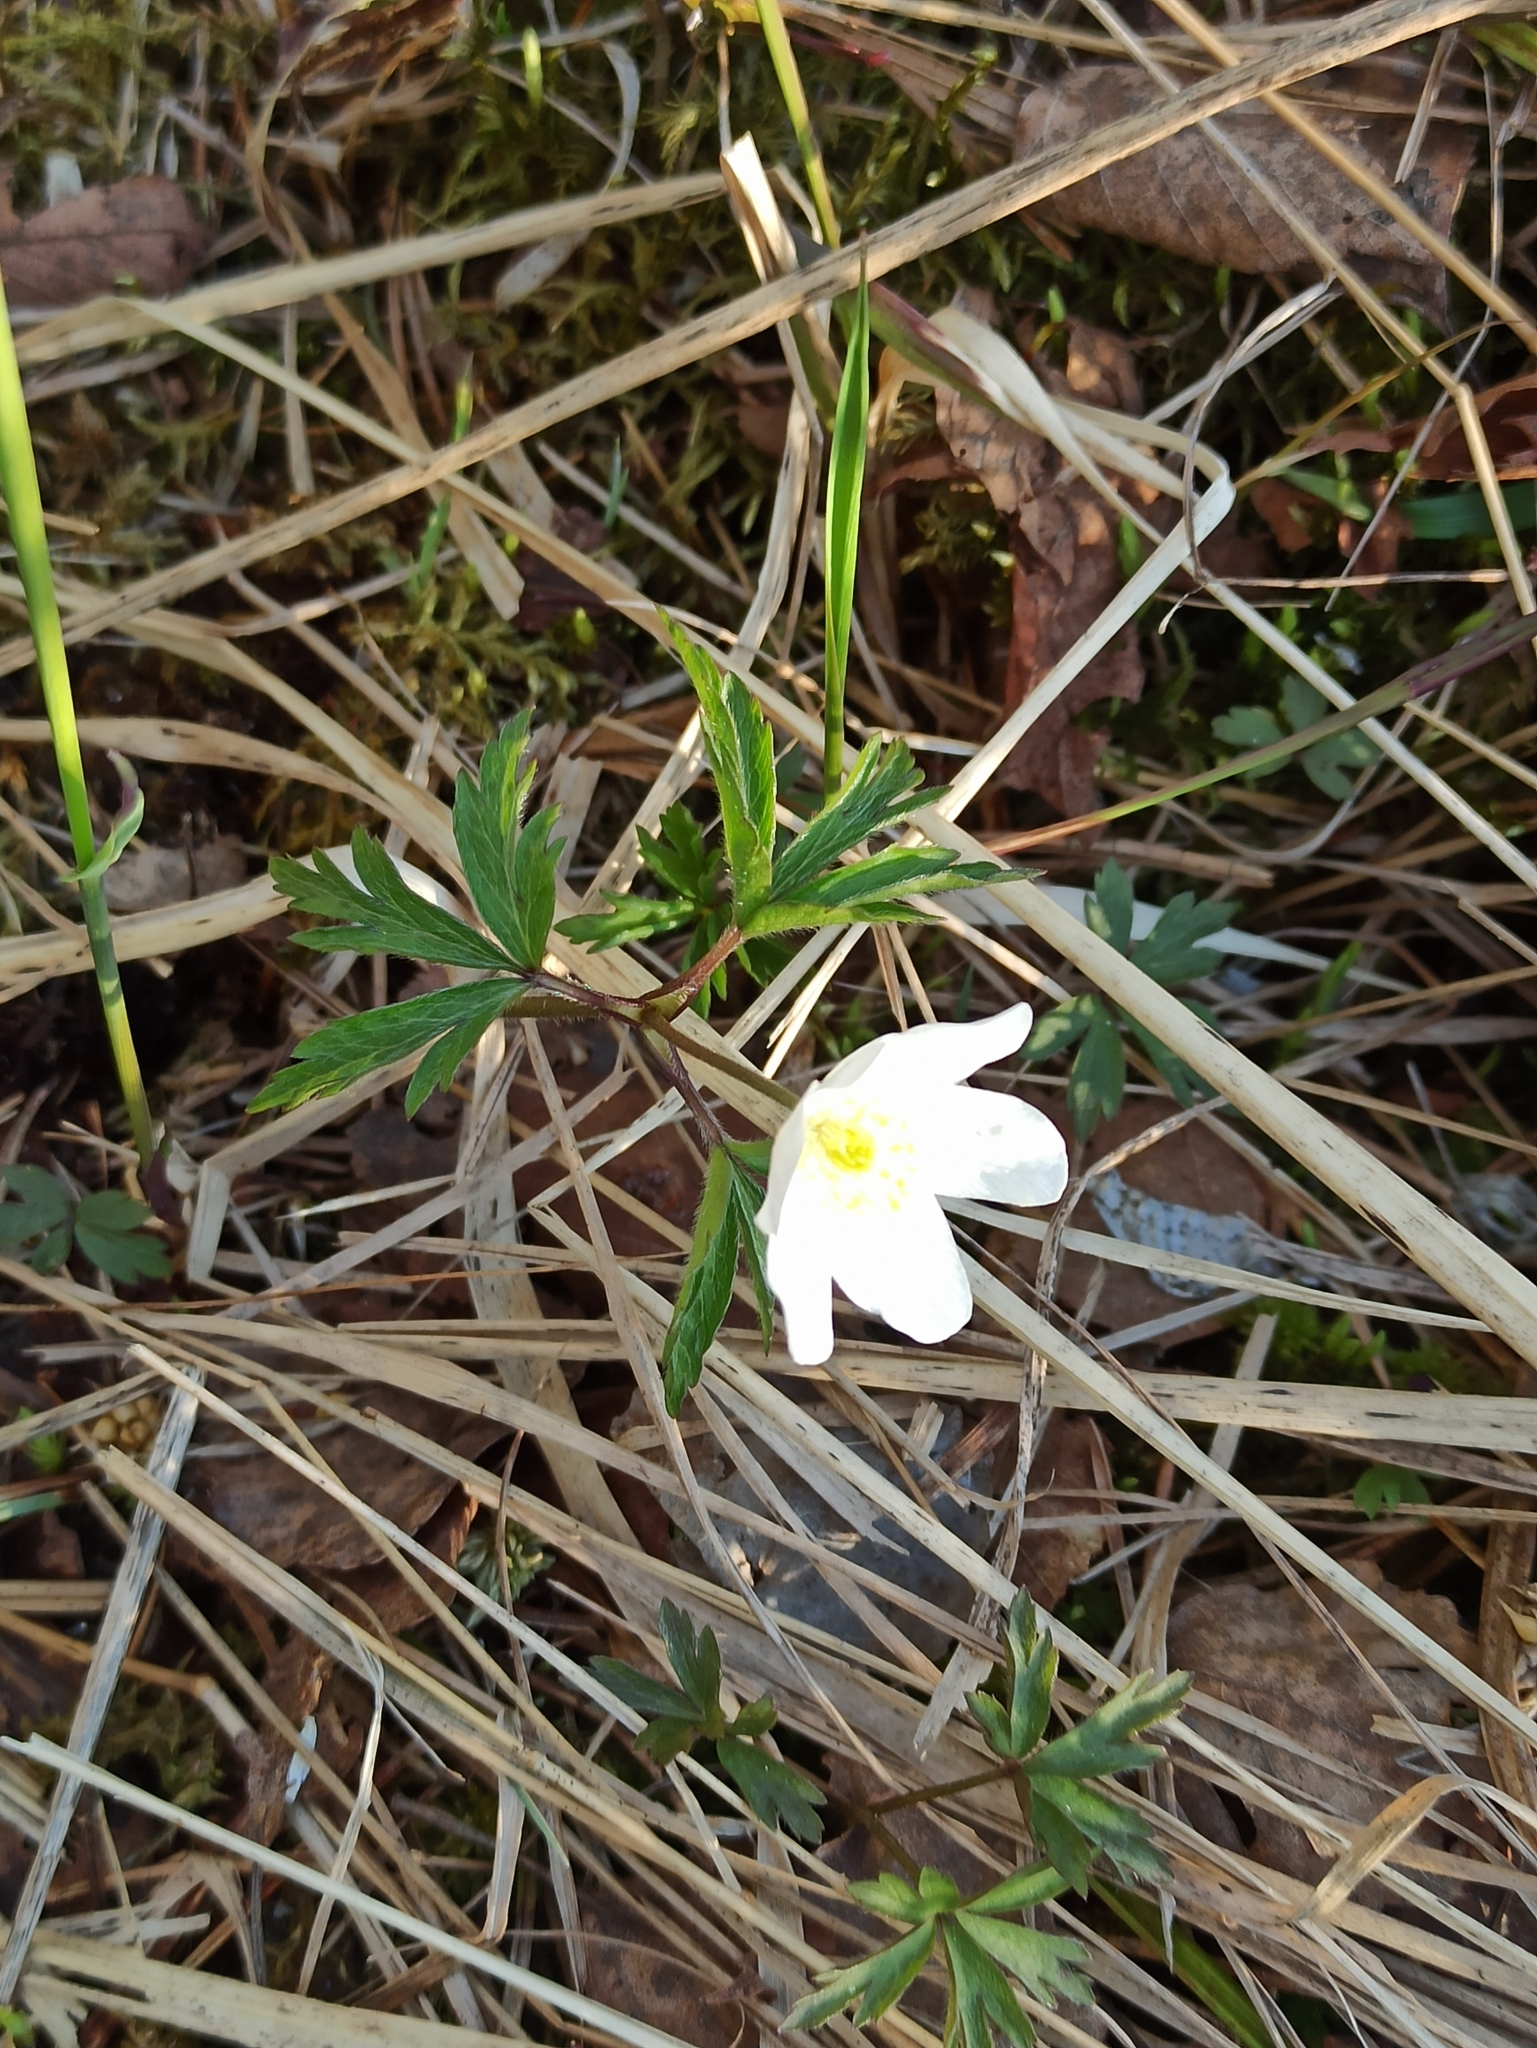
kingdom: Plantae
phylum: Tracheophyta
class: Magnoliopsida
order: Ranunculales
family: Ranunculaceae
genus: Anemone
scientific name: Anemone nemorosa
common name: Wood anemone
